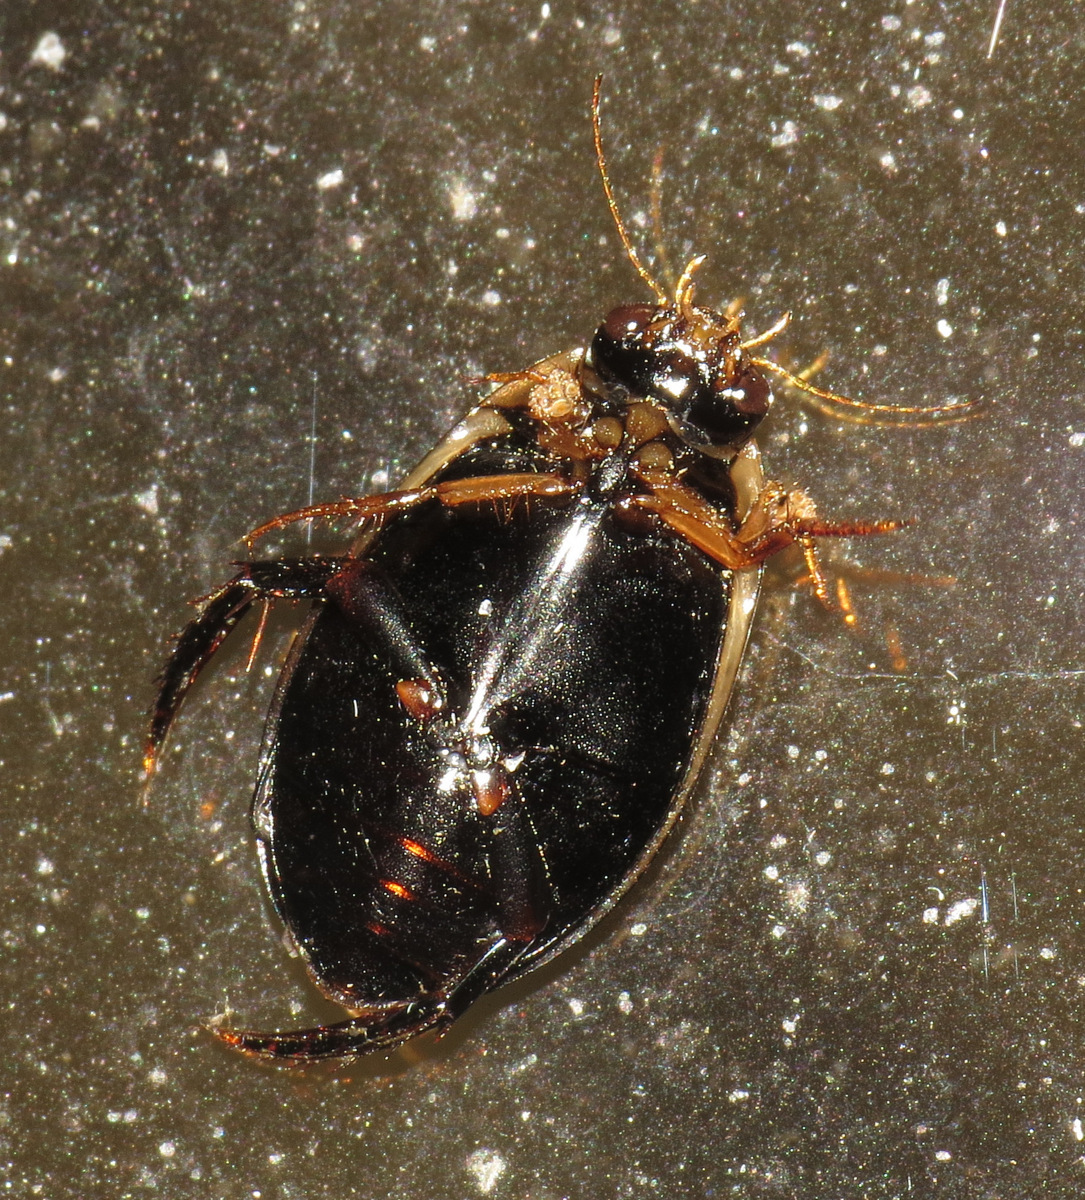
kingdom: Animalia
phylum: Arthropoda
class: Insecta
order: Coleoptera
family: Dytiscidae
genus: Acilius
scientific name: Acilius mediatus
